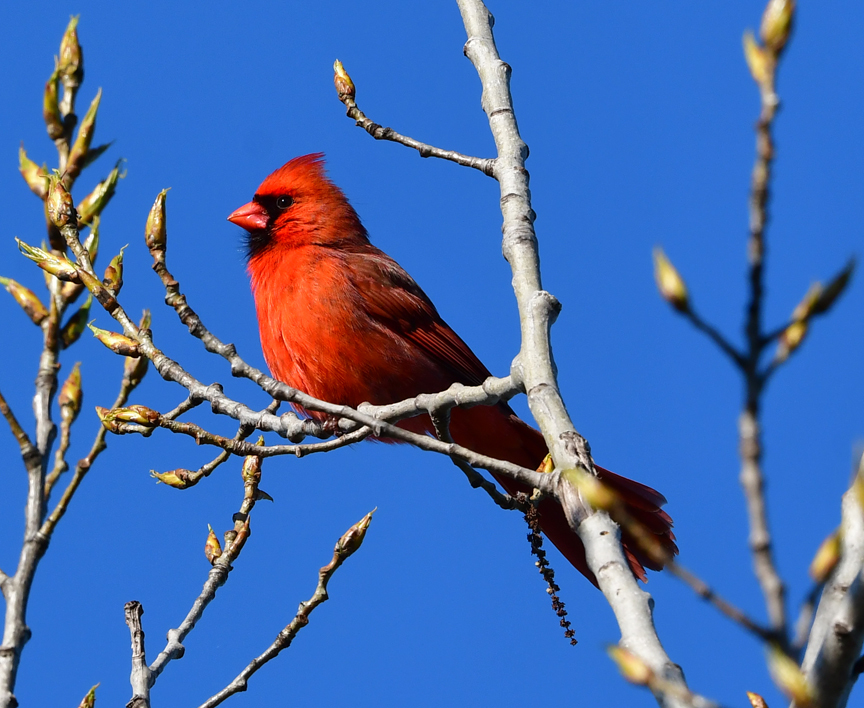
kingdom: Animalia
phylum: Chordata
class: Aves
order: Passeriformes
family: Cardinalidae
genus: Cardinalis
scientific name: Cardinalis cardinalis
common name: Northern cardinal
